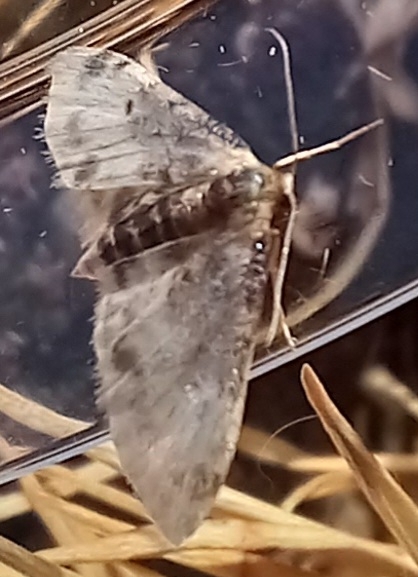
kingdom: Animalia
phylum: Arthropoda
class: Insecta
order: Lepidoptera
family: Geometridae
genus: Idaea
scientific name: Idaea filicata
